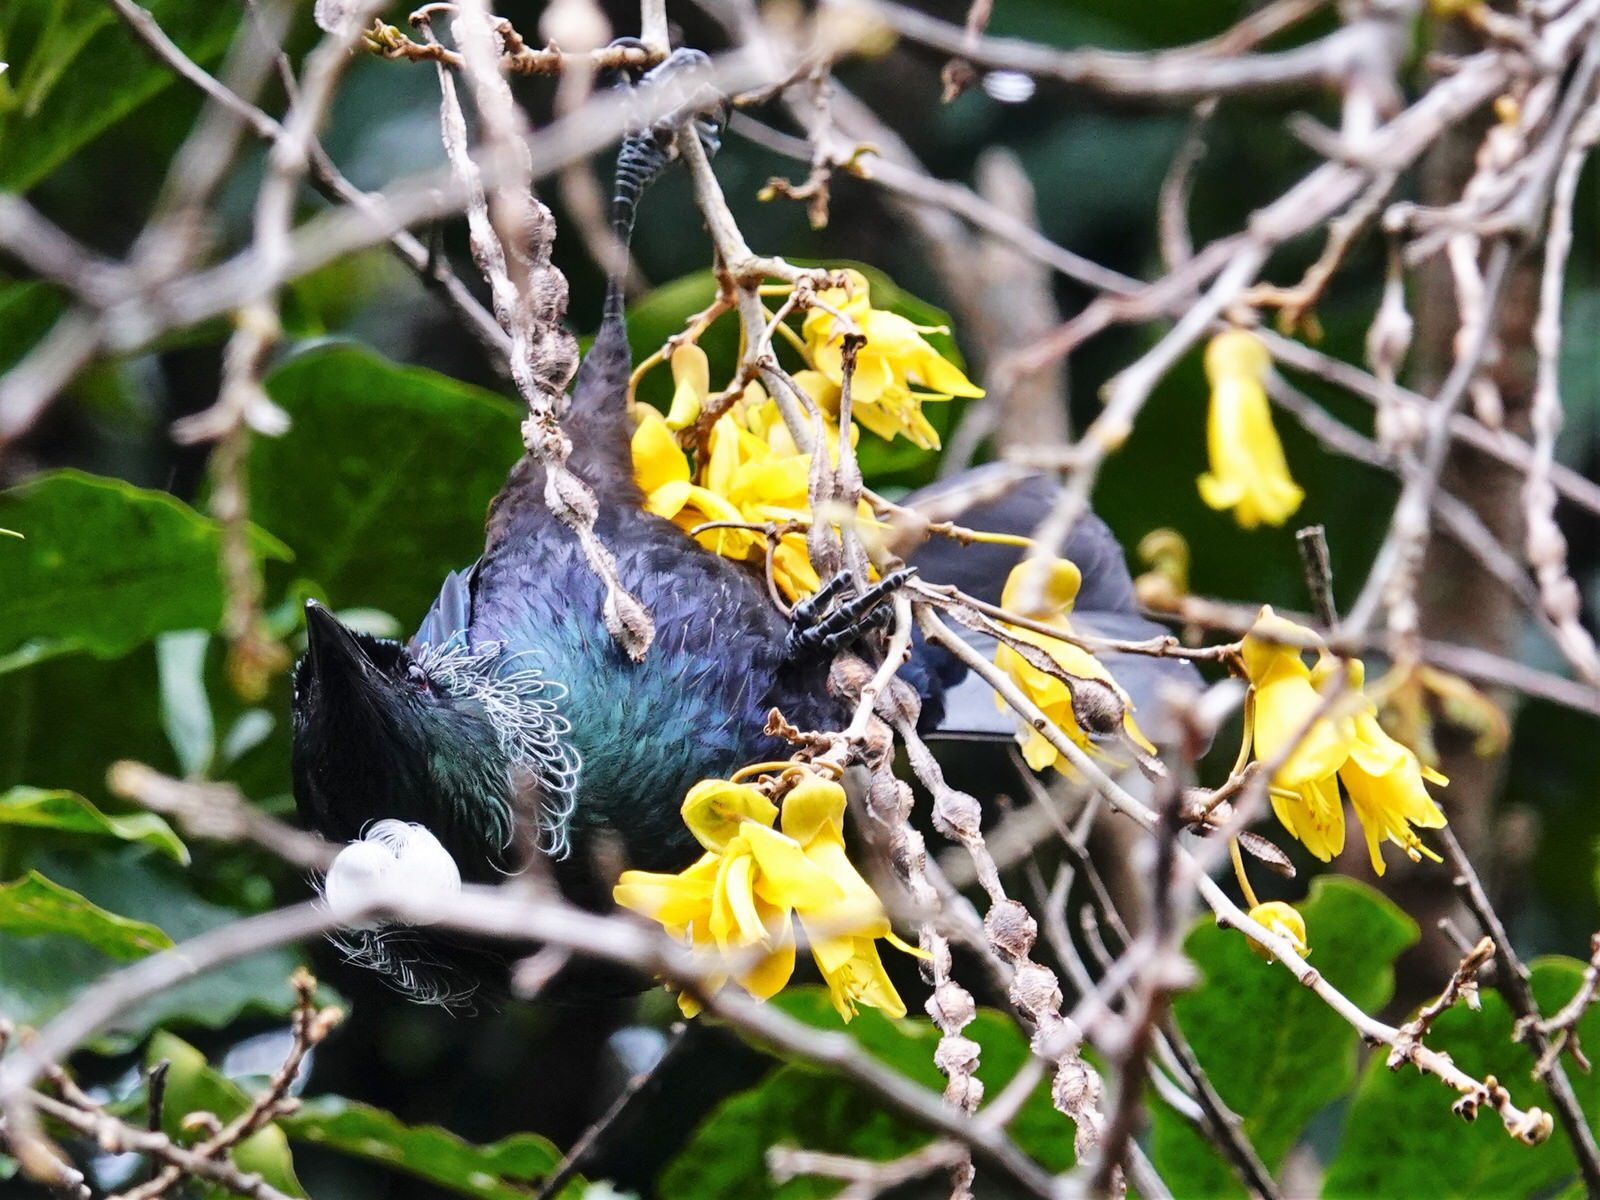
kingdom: Animalia
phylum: Chordata
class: Aves
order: Passeriformes
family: Meliphagidae
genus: Prosthemadera
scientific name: Prosthemadera novaeseelandiae
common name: Tui
